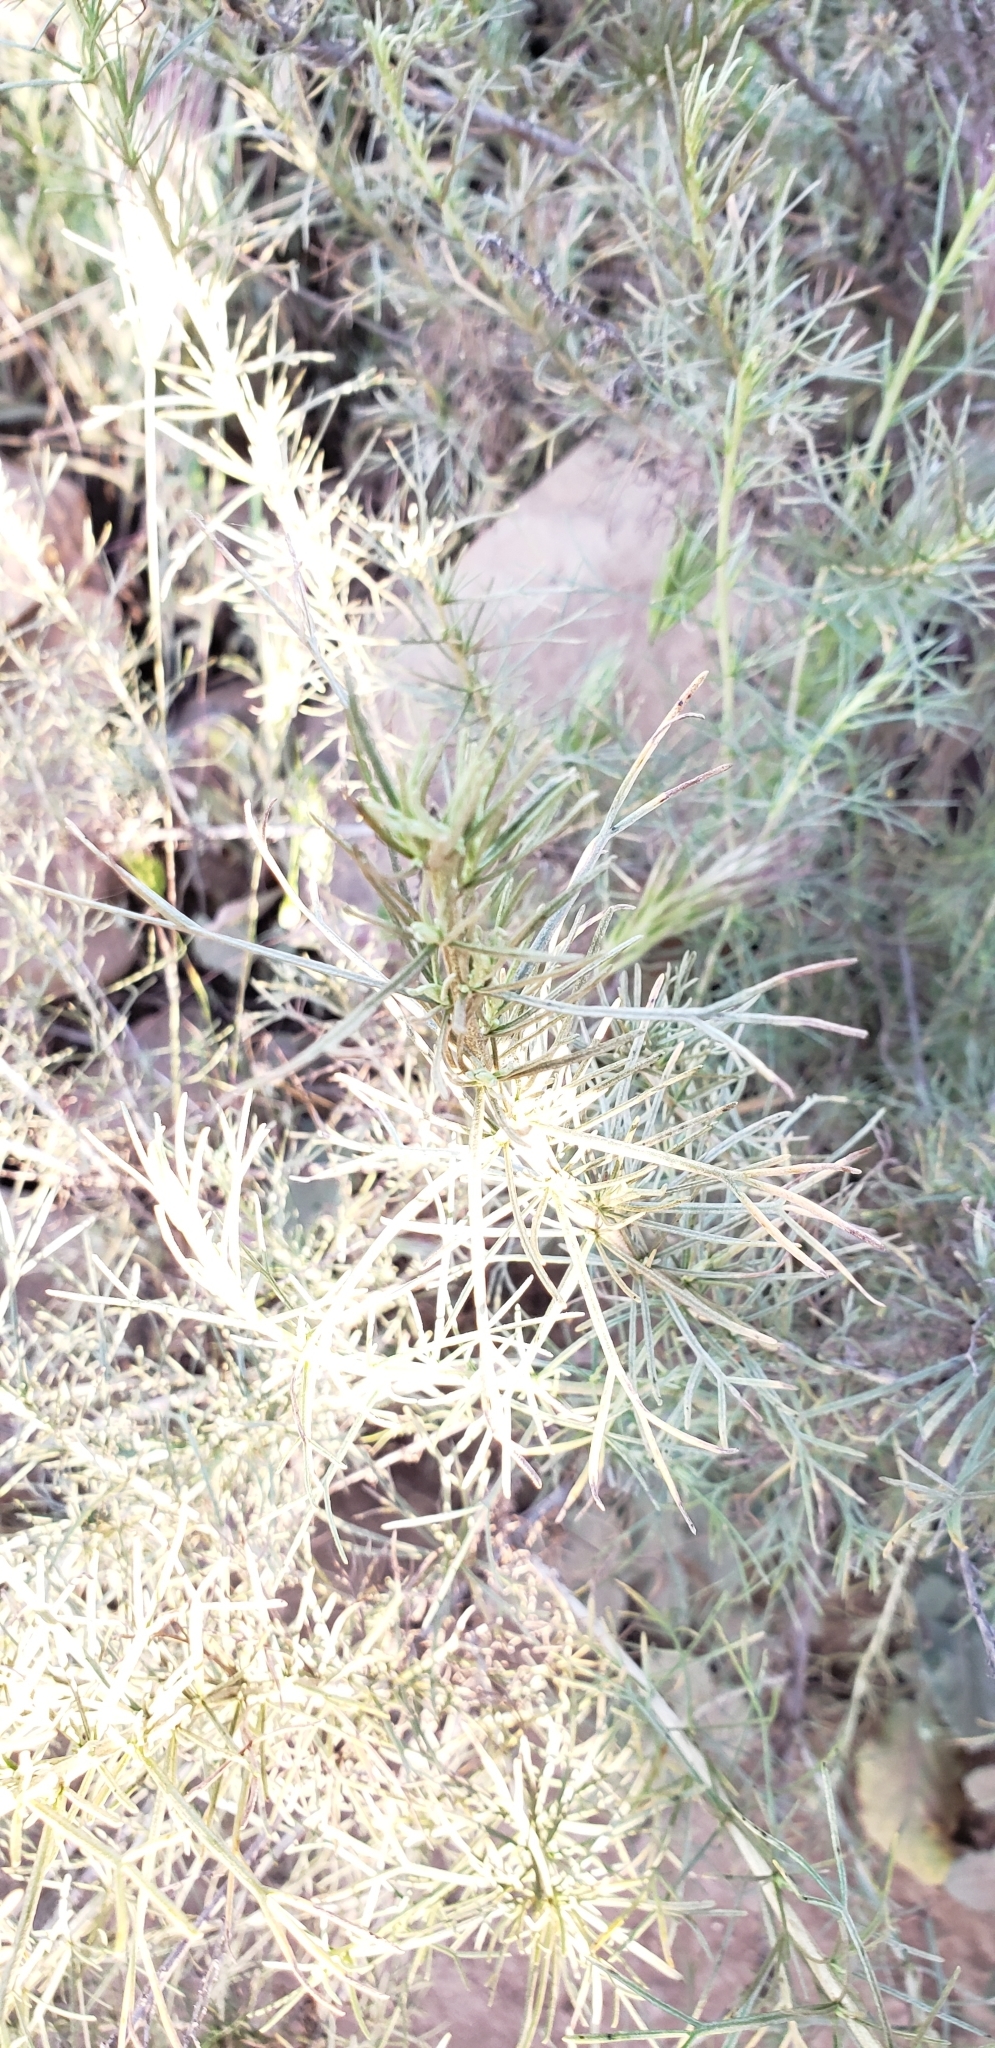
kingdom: Plantae
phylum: Tracheophyta
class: Magnoliopsida
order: Asterales
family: Asteraceae
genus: Artemisia
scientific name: Artemisia californica
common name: California sagebrush
